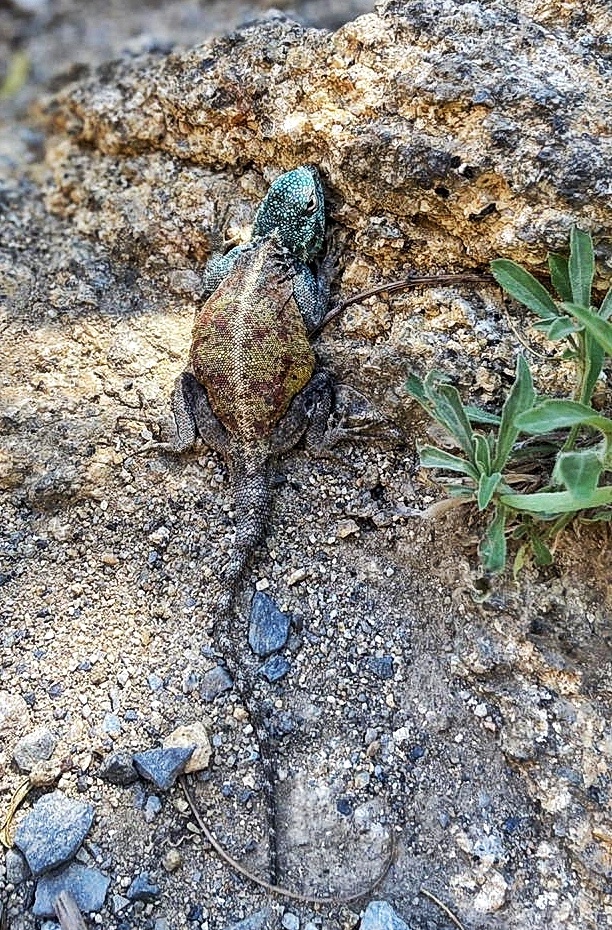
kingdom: Animalia
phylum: Chordata
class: Squamata
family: Agamidae
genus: Agama
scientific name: Agama atra
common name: Southern african rock agama
